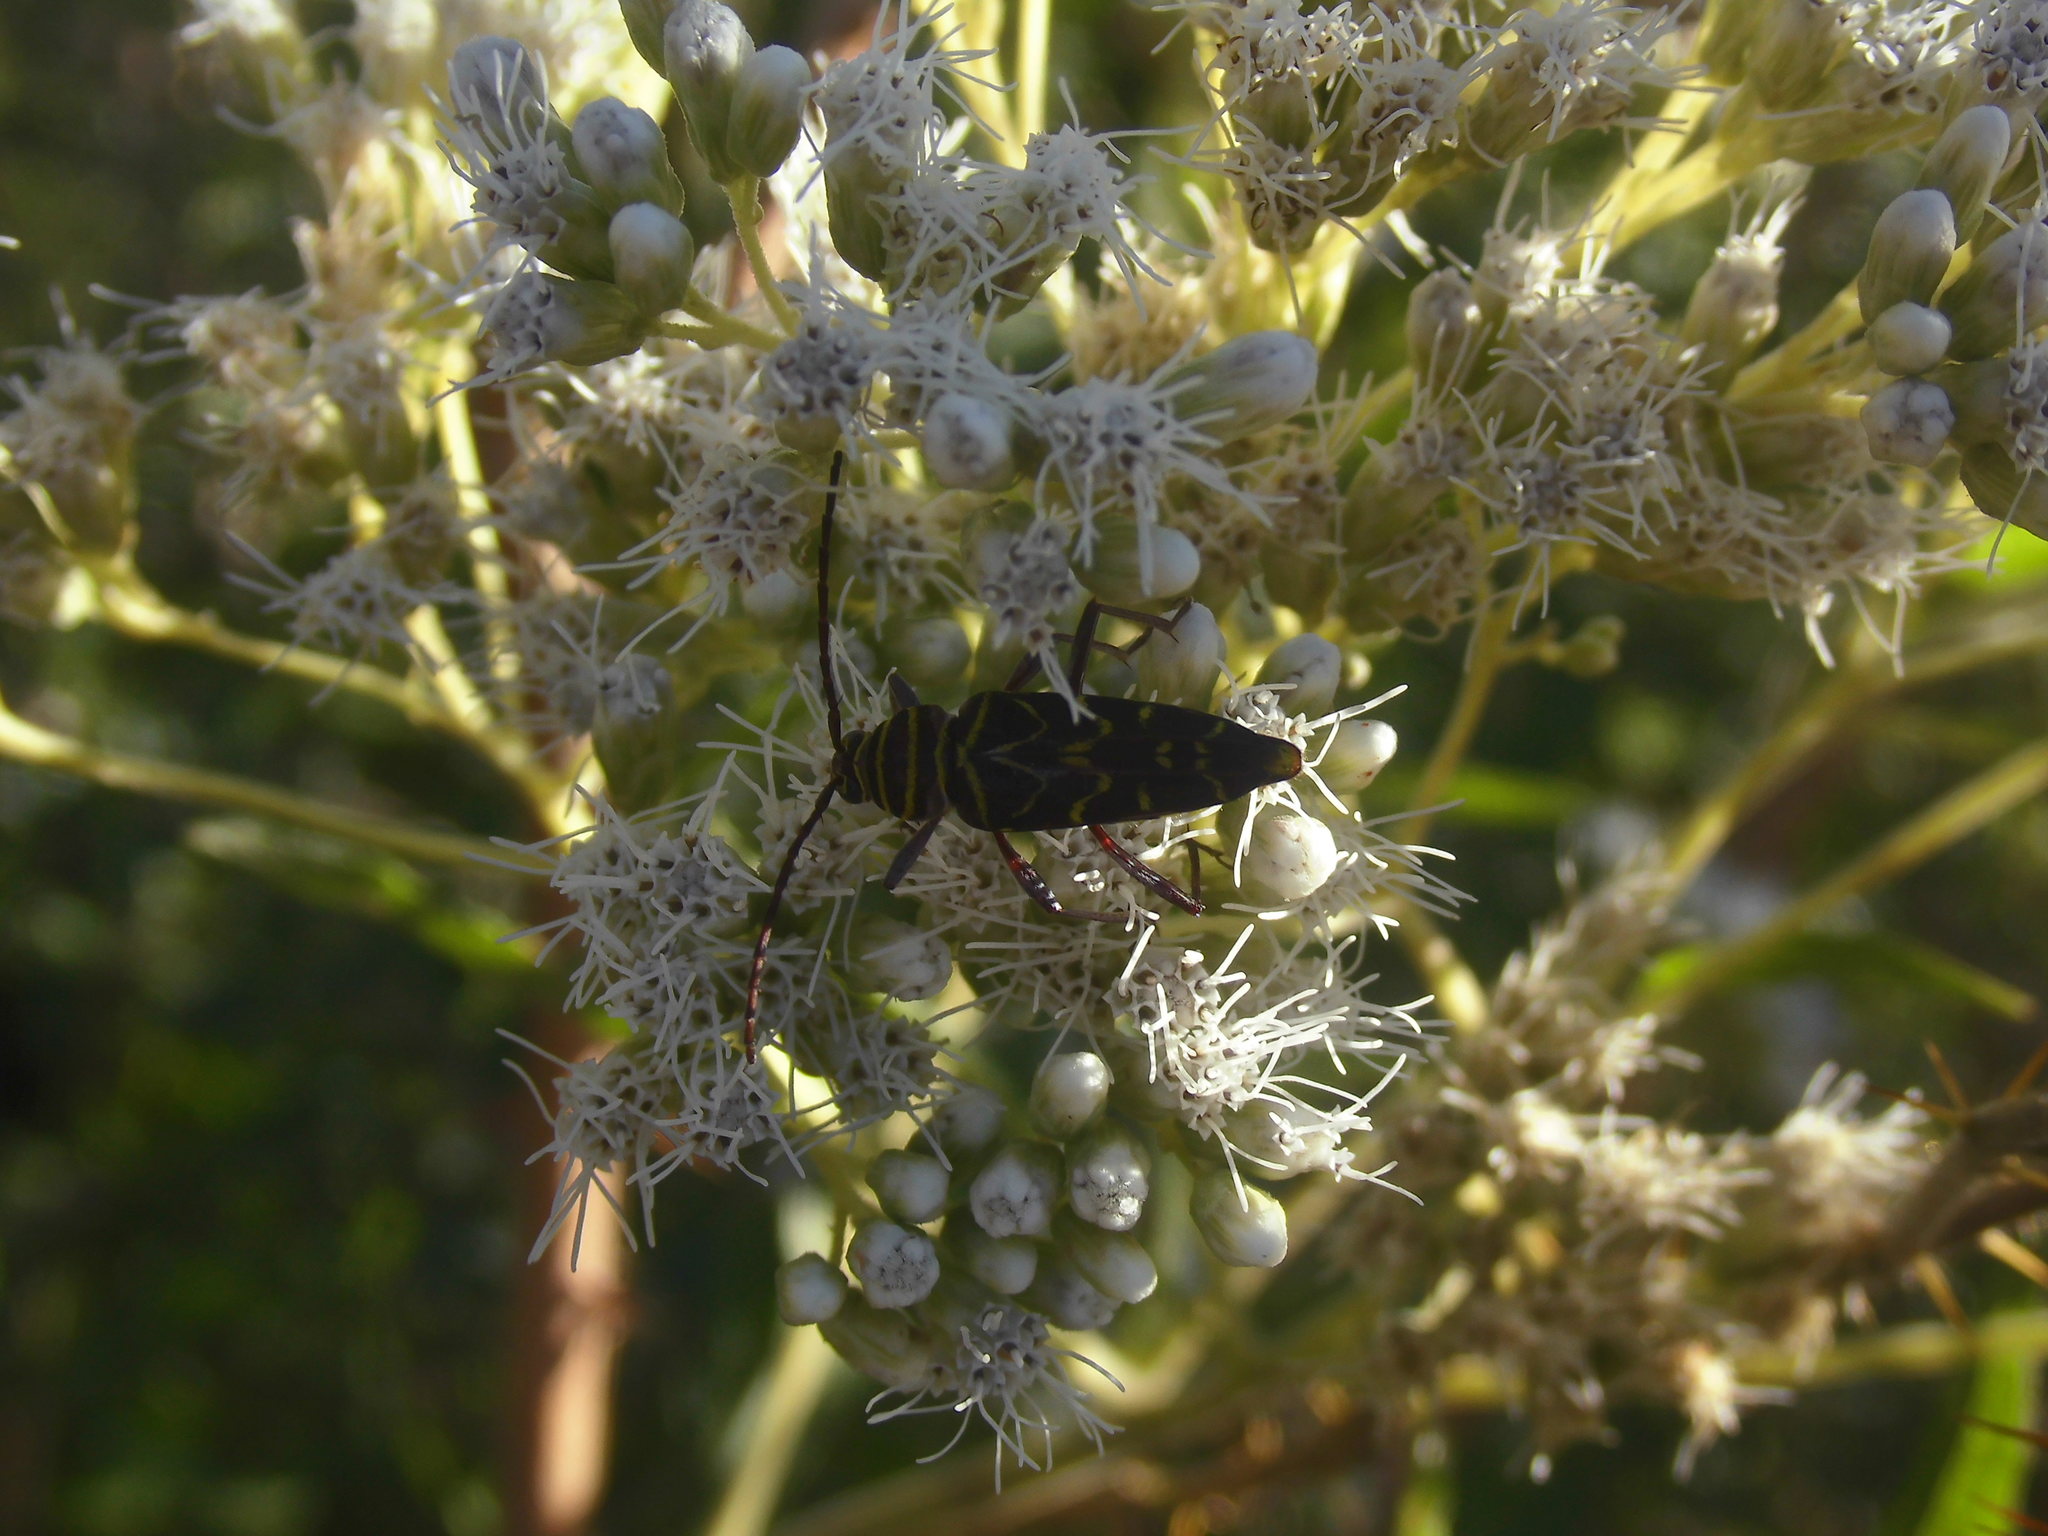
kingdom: Animalia
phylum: Arthropoda
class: Insecta
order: Coleoptera
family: Cerambycidae
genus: Megacyllene
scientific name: Megacyllene acuta
